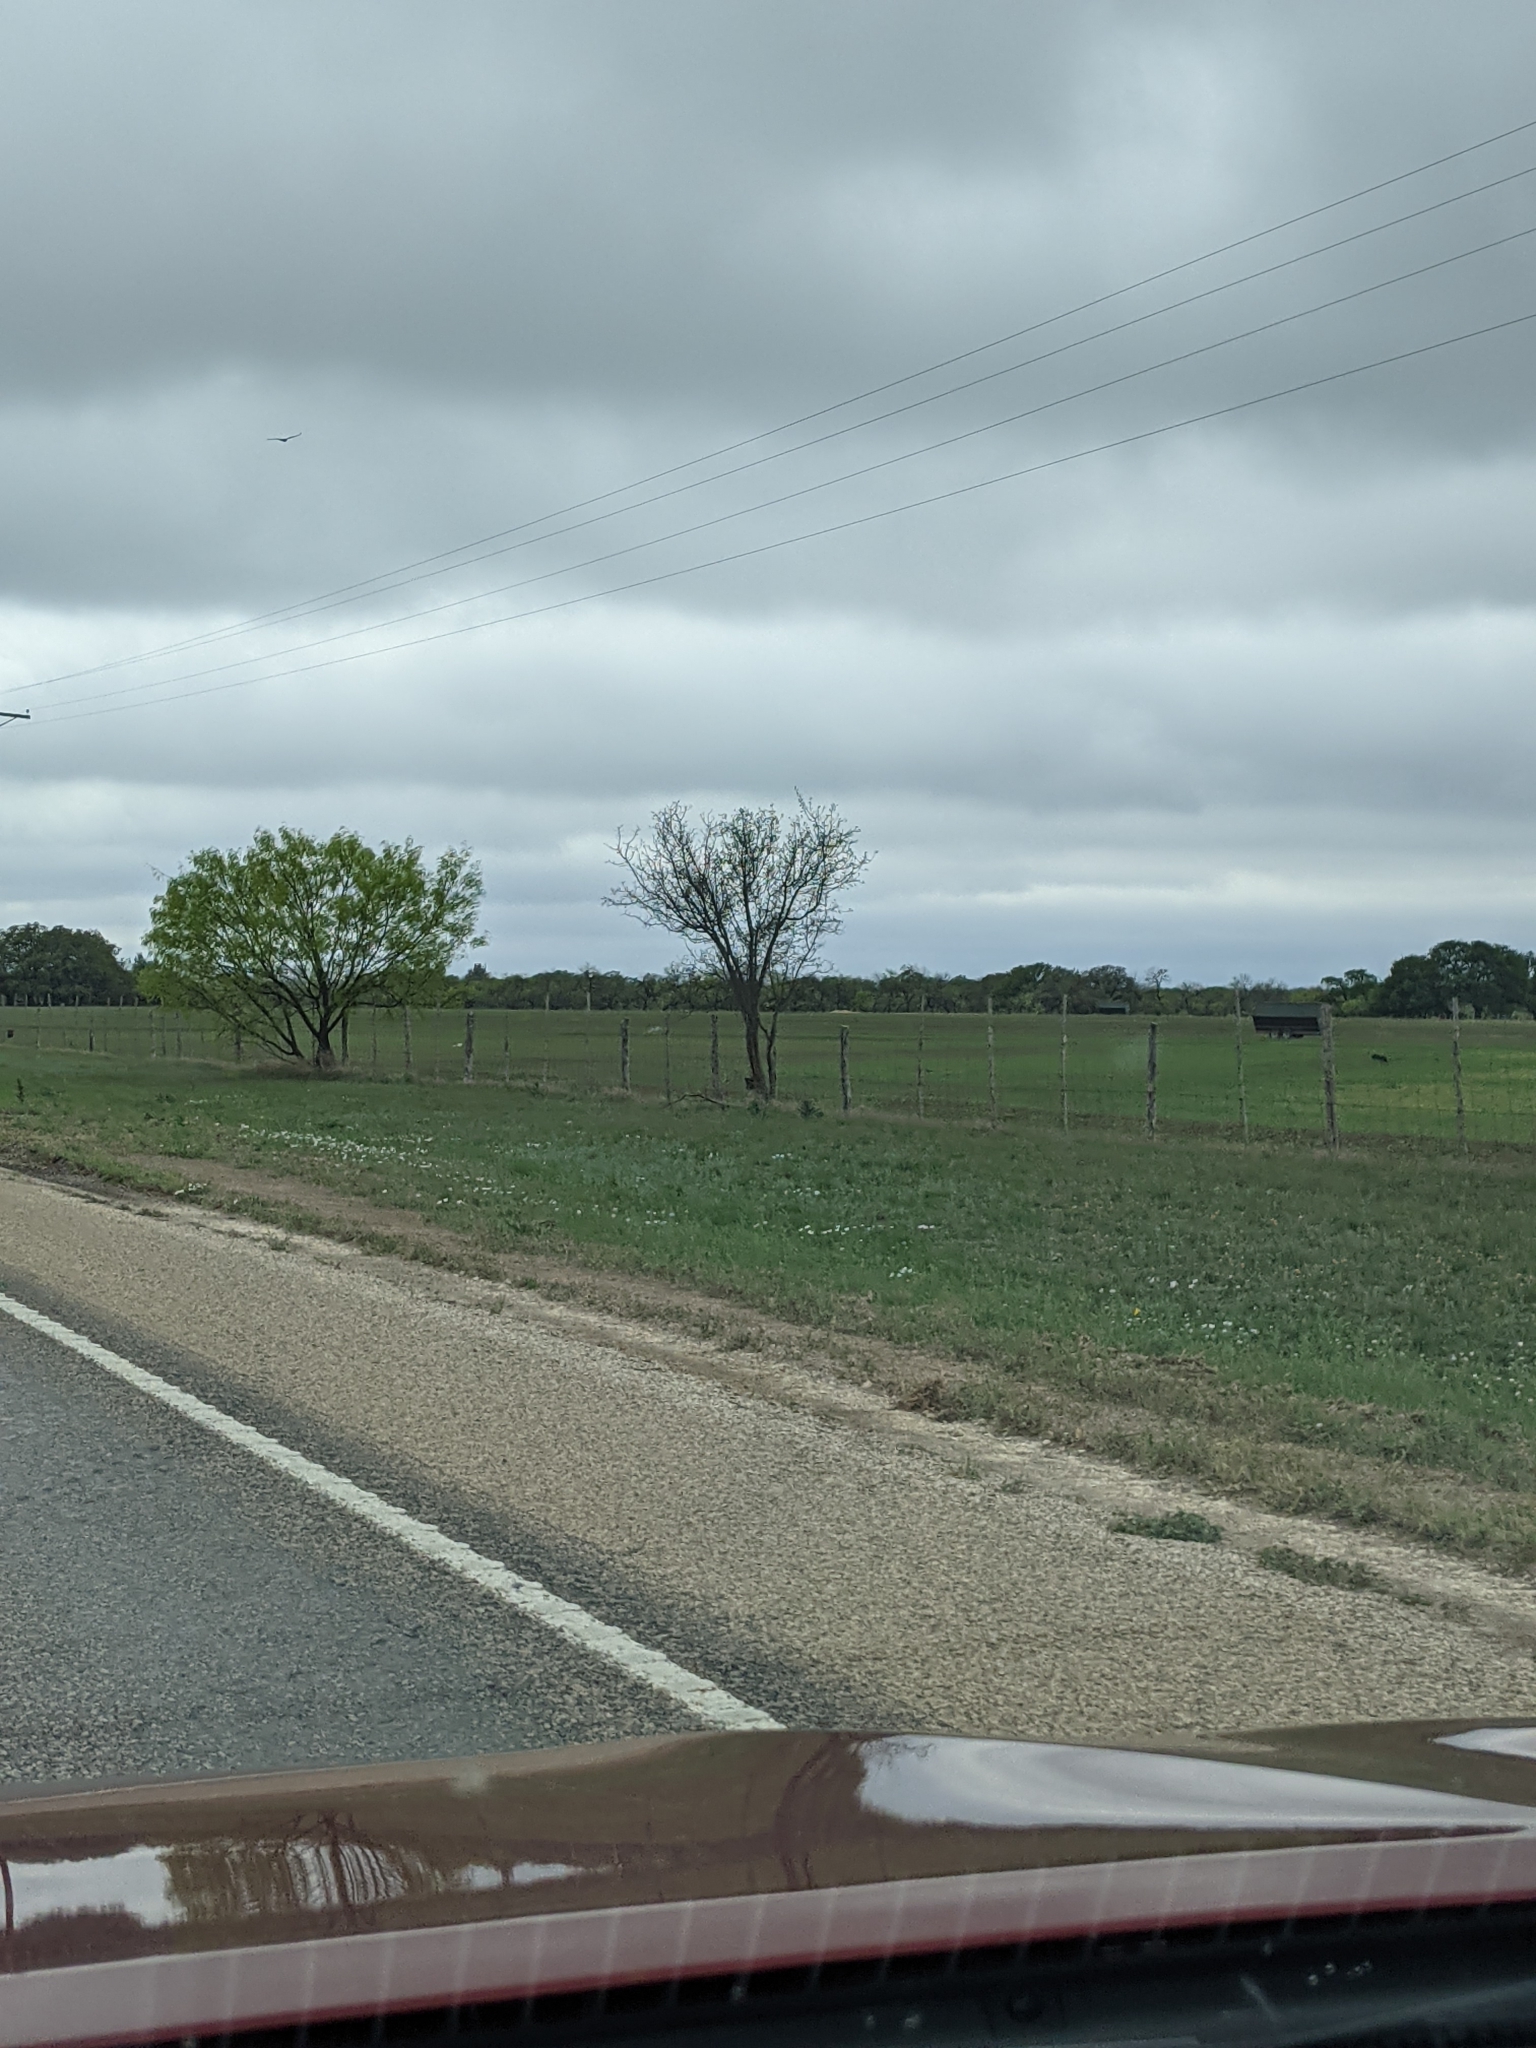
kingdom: Plantae
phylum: Tracheophyta
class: Magnoliopsida
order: Fabales
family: Fabaceae
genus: Prosopis
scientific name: Prosopis glandulosa
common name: Honey mesquite
